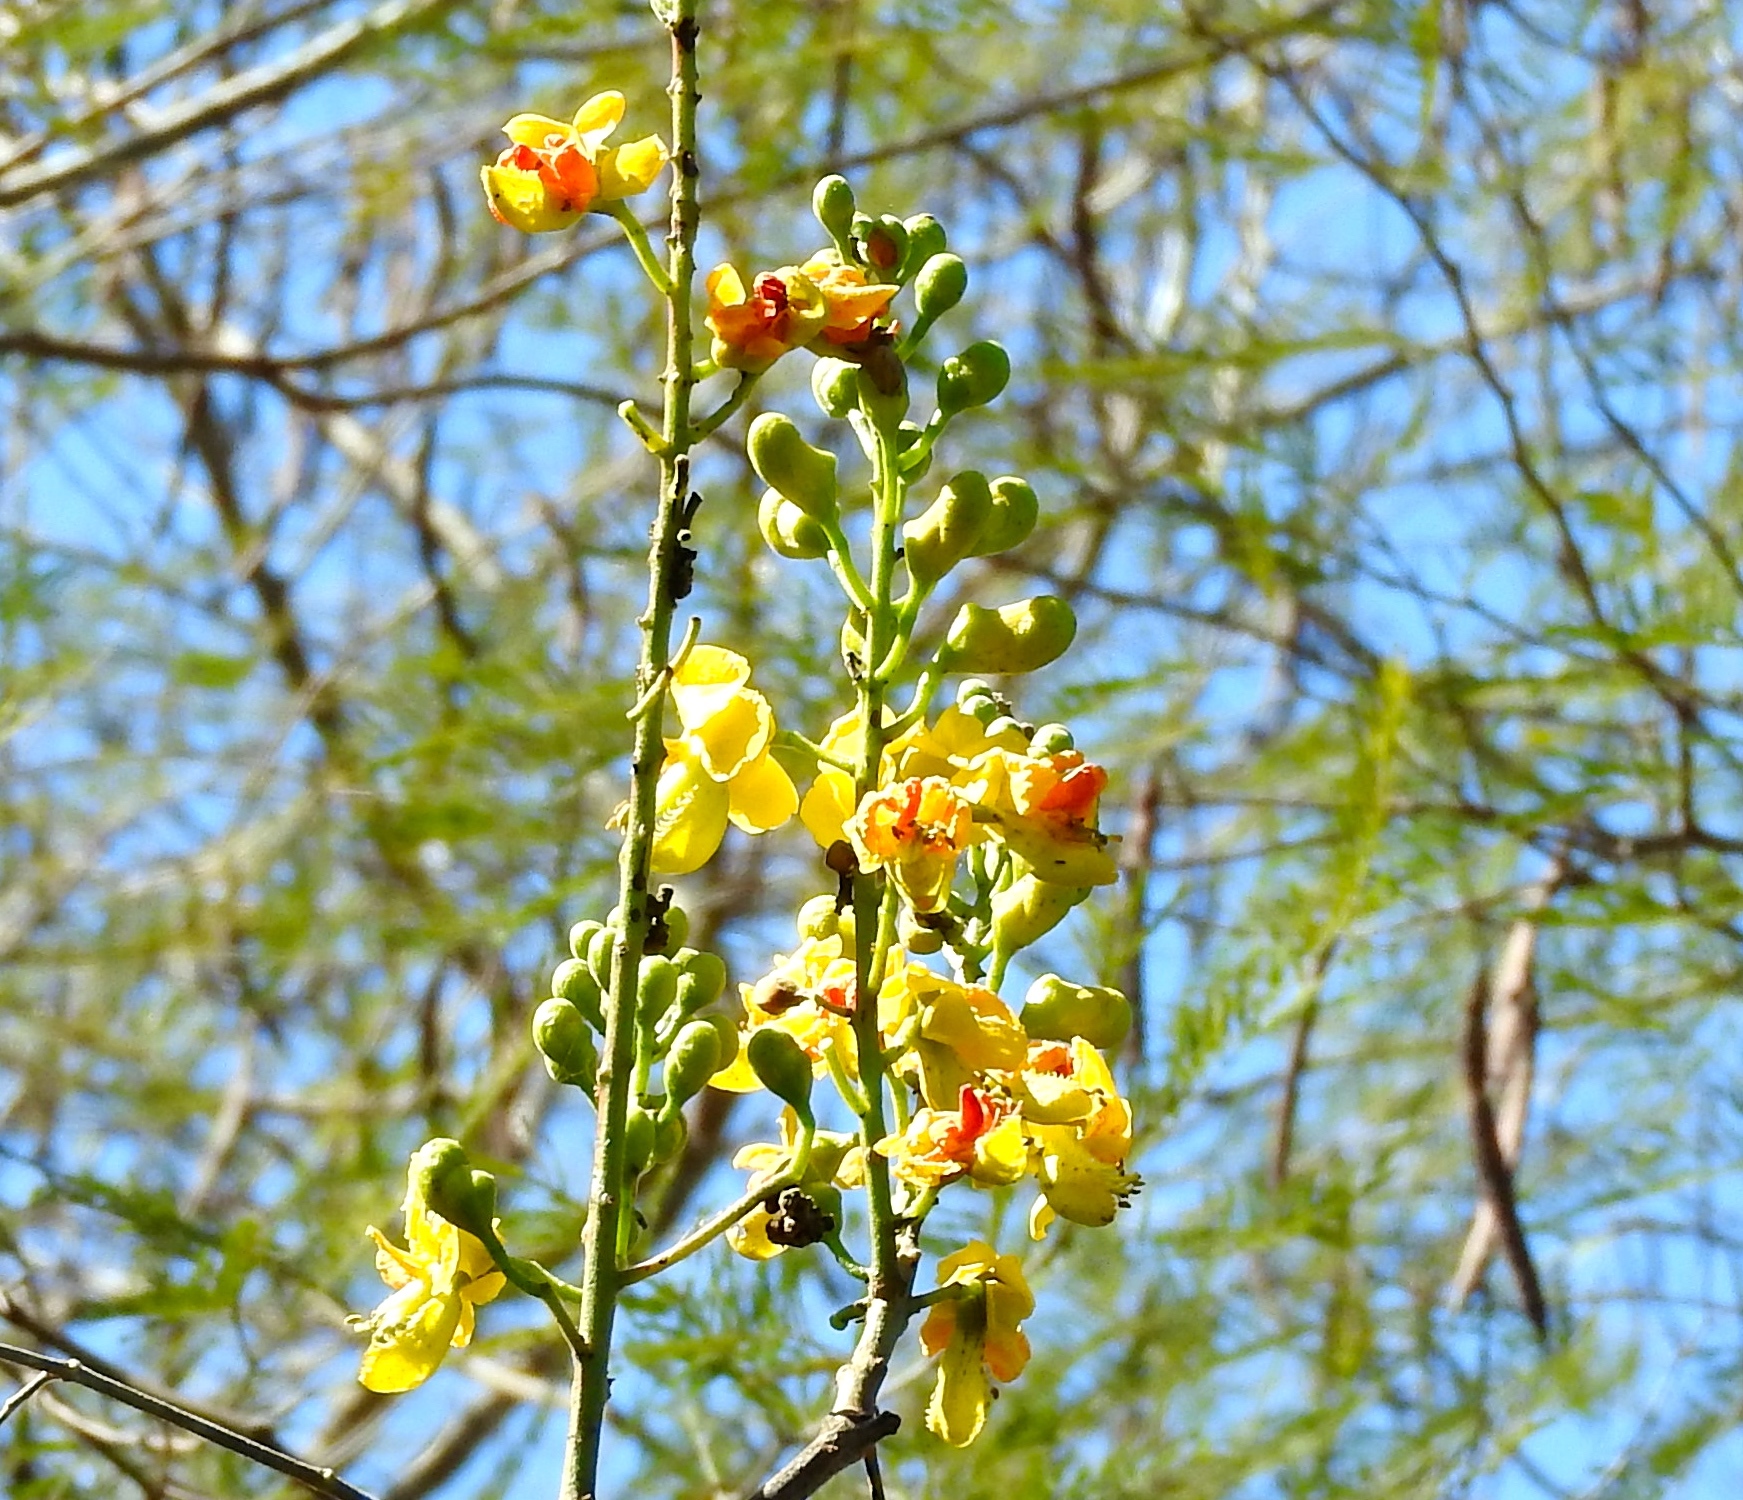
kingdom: Plantae
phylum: Tracheophyta
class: Magnoliopsida
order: Fabales
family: Fabaceae
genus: Tara
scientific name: Tara cacalaco
